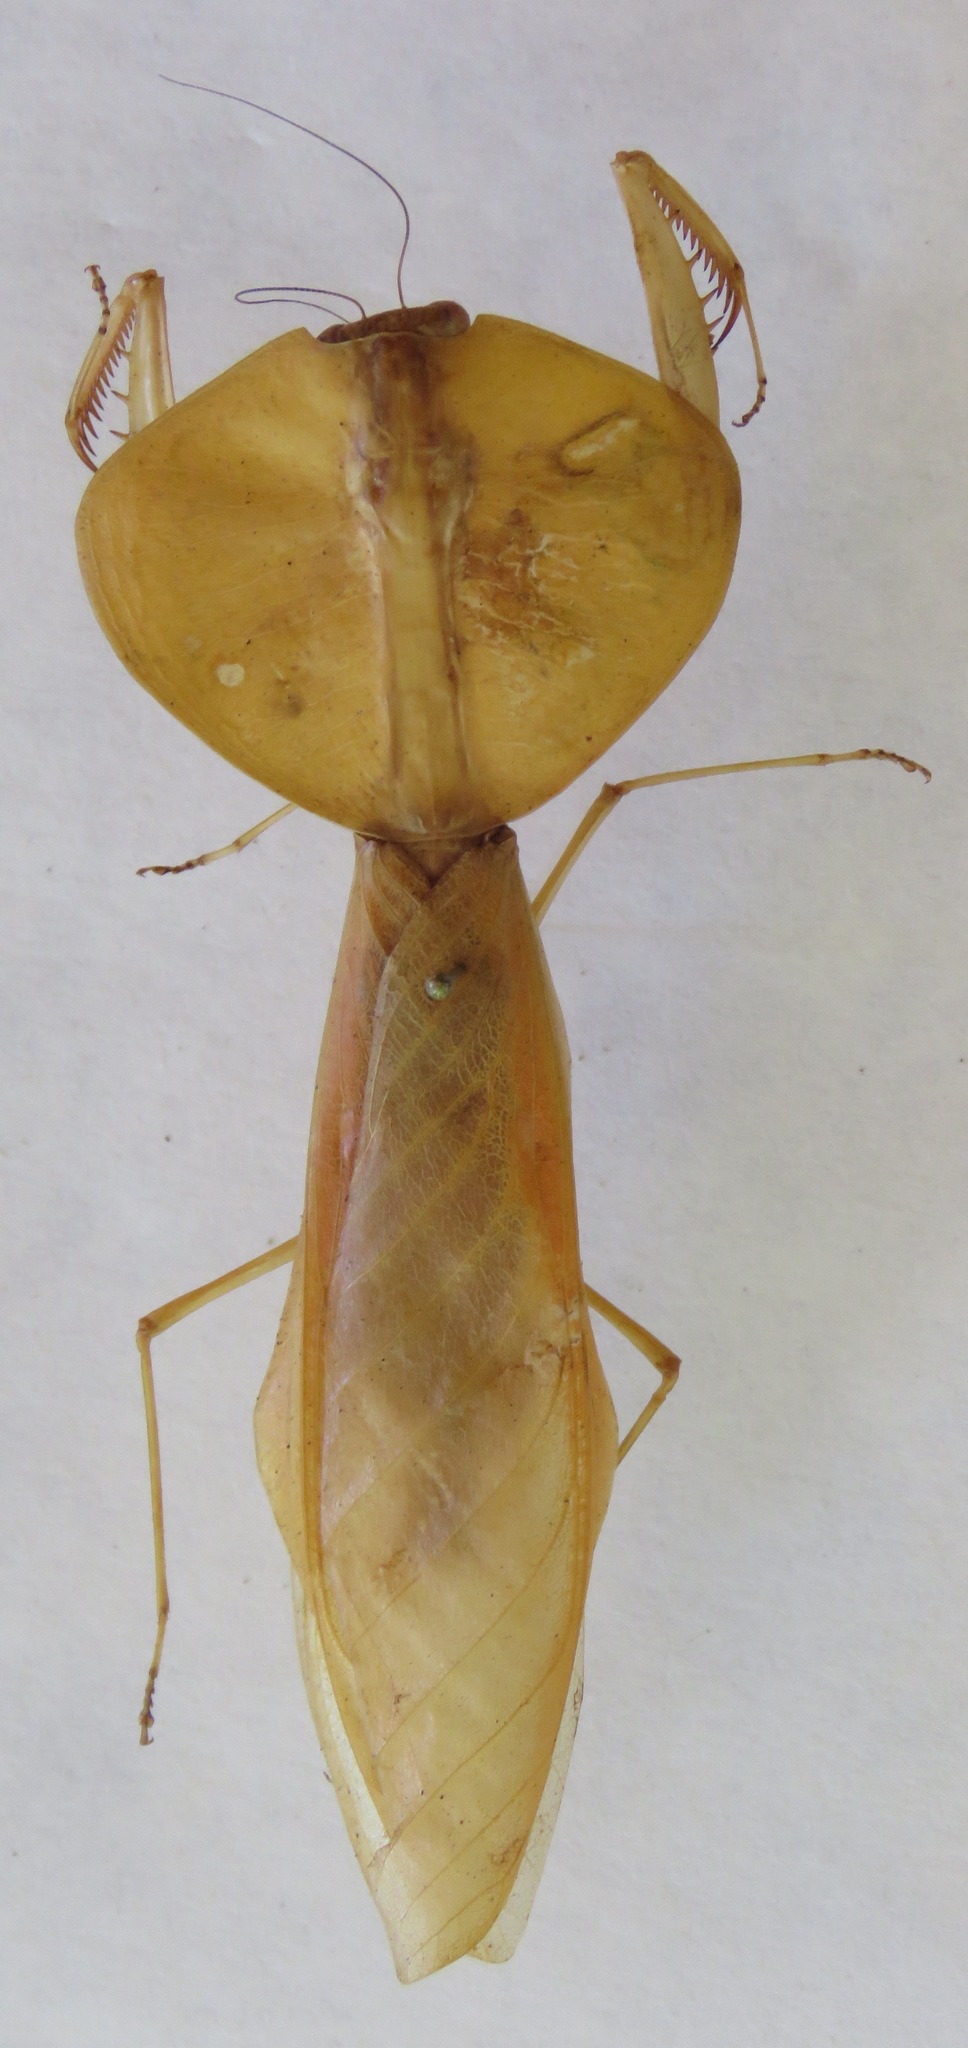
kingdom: Animalia
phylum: Arthropoda
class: Insecta
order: Mantodea
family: Mantidae
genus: Choeradodis
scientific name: Choeradodis rhombicollis
